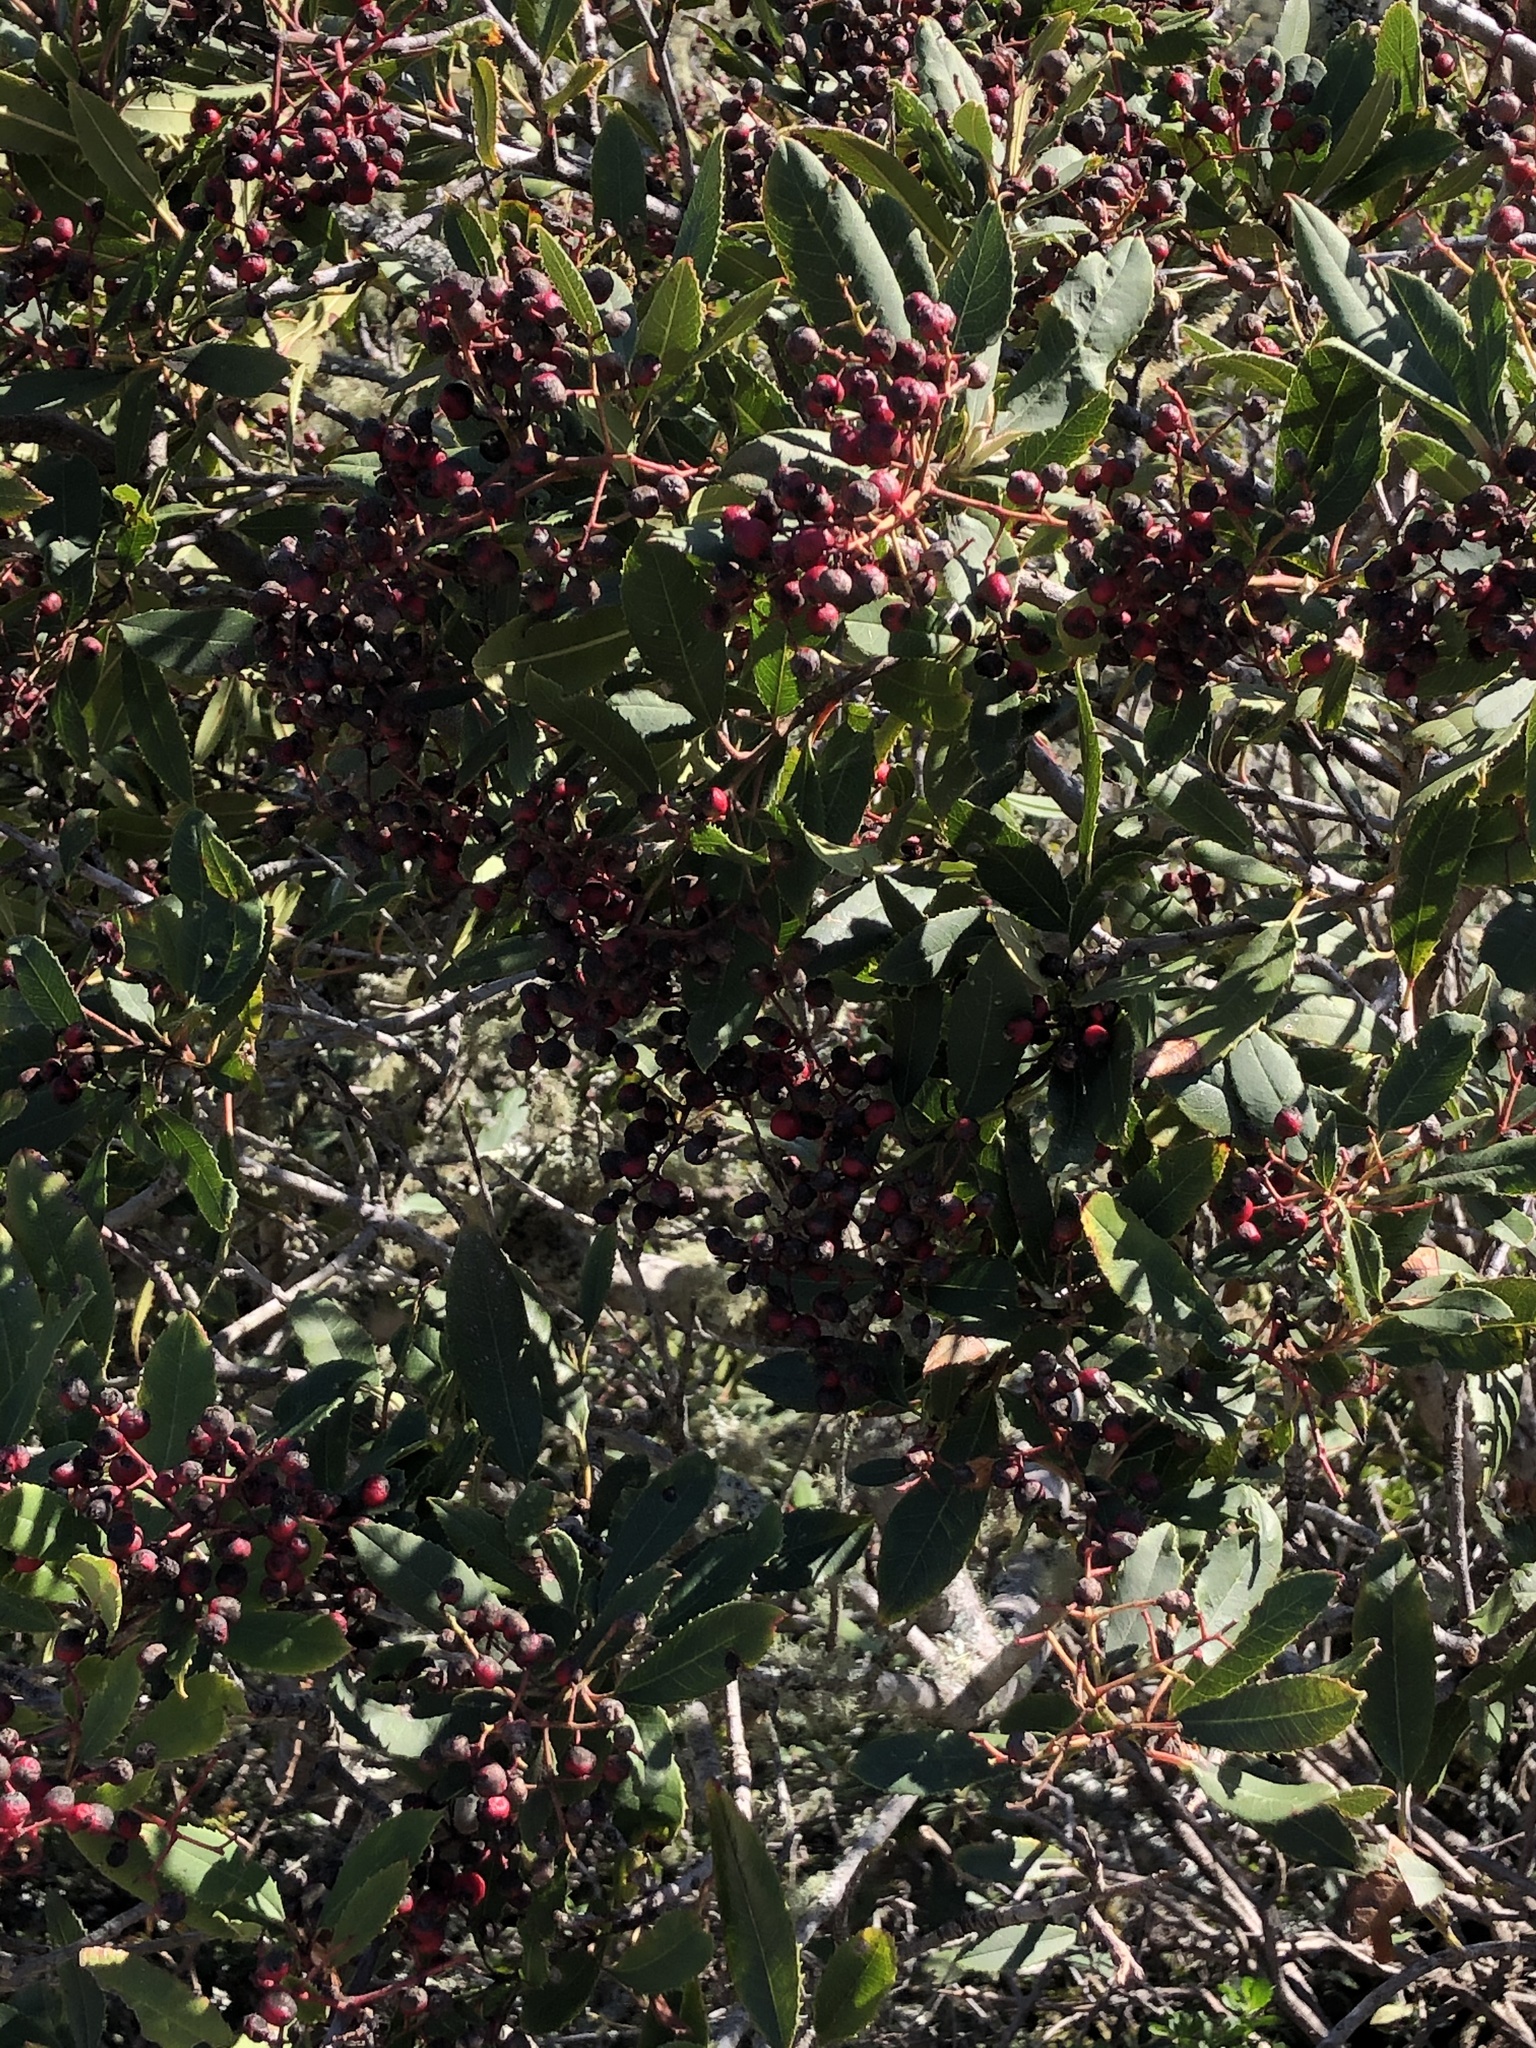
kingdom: Plantae
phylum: Tracheophyta
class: Magnoliopsida
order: Rosales
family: Rosaceae
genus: Heteromeles
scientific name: Heteromeles arbutifolia
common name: California-holly
